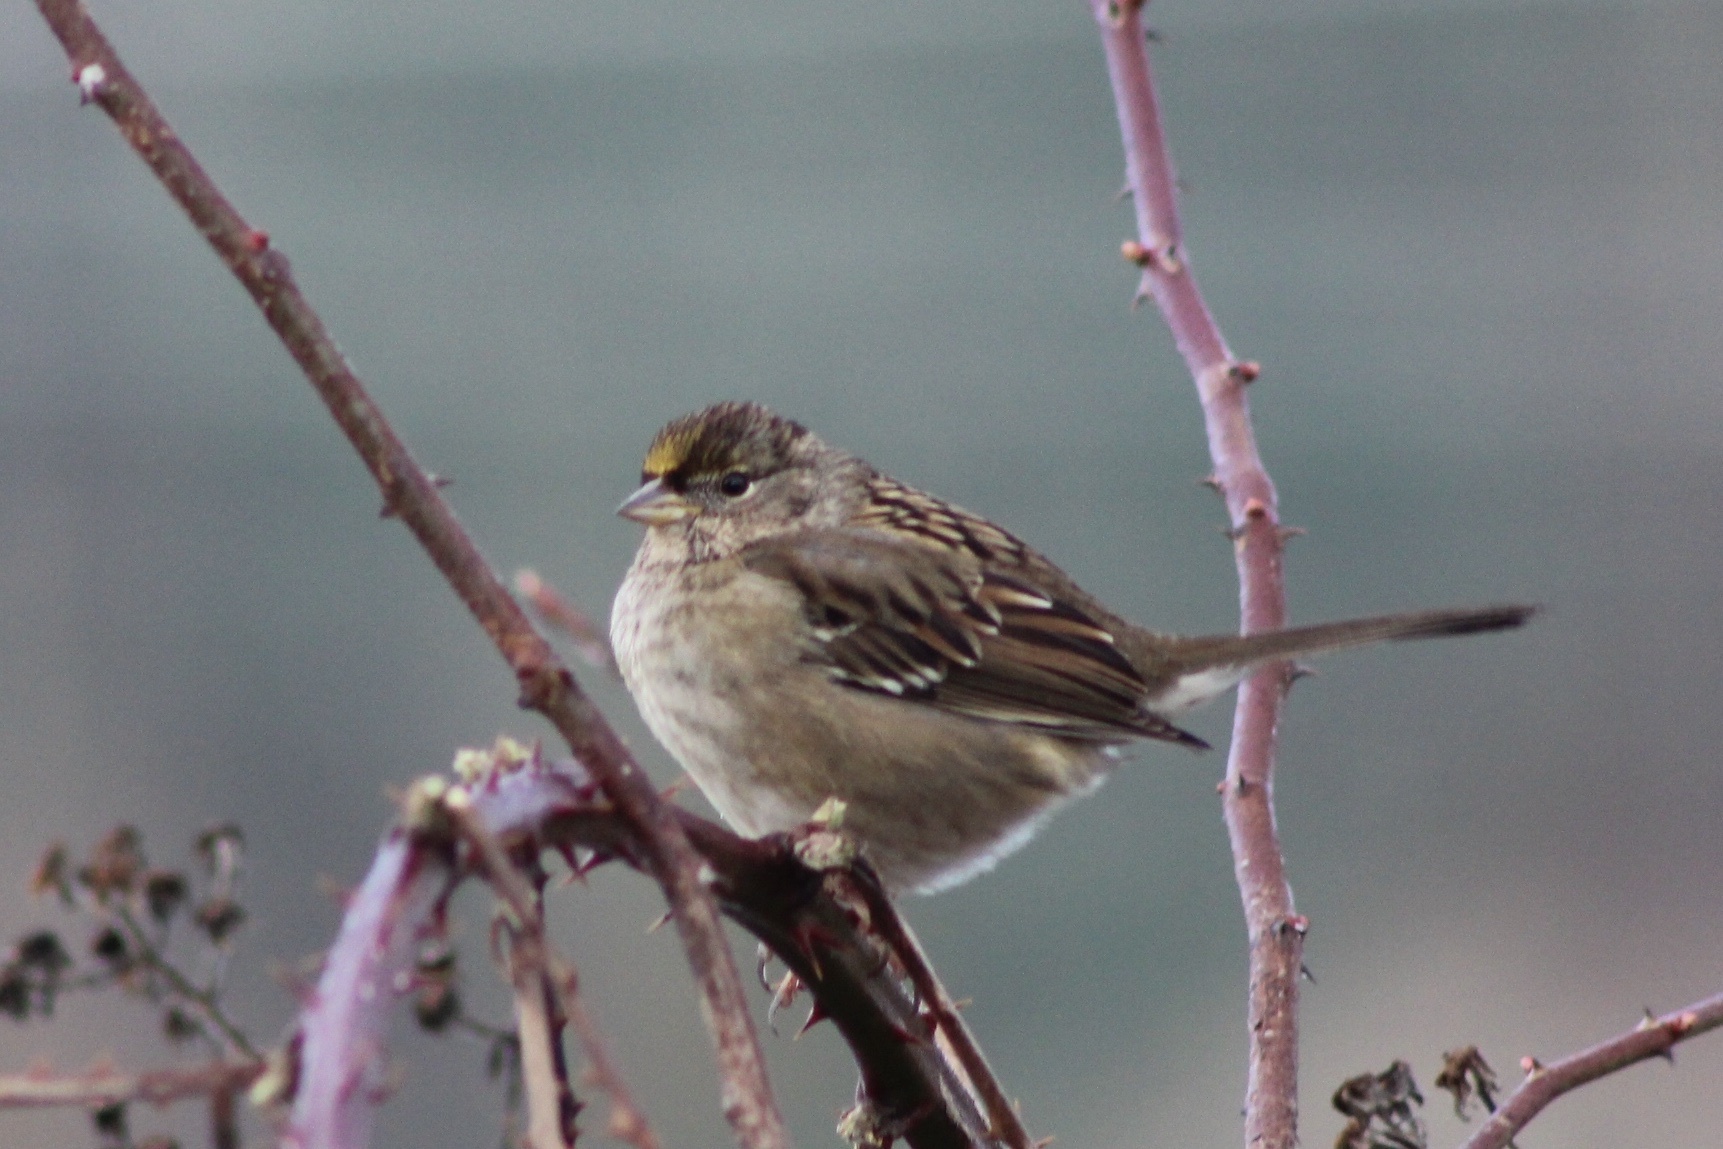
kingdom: Animalia
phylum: Chordata
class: Aves
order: Passeriformes
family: Passerellidae
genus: Zonotrichia
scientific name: Zonotrichia atricapilla
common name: Golden-crowned sparrow
